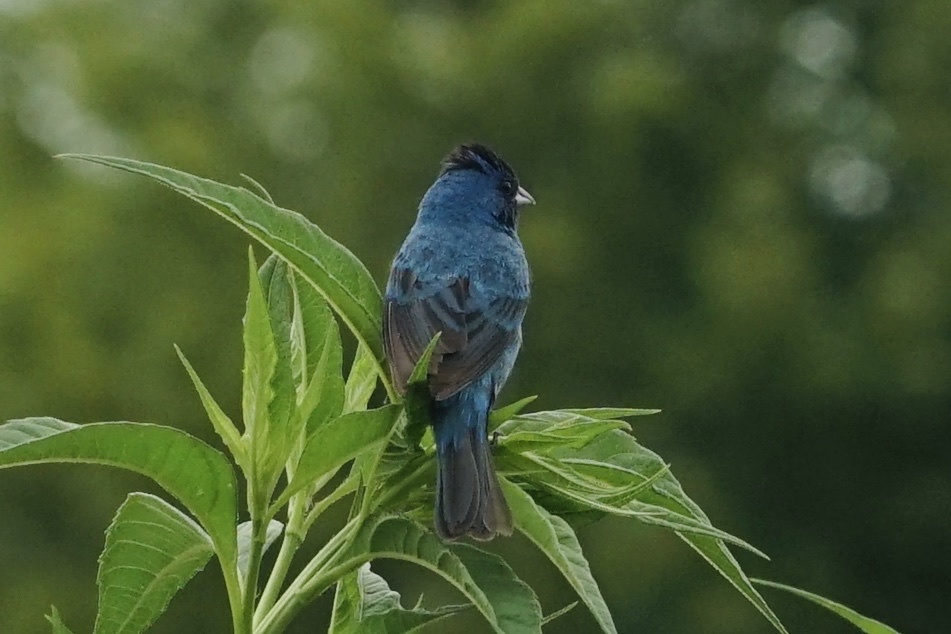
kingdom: Animalia
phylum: Chordata
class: Aves
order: Passeriformes
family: Cardinalidae
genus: Passerina
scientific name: Passerina cyanea
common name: Indigo bunting
